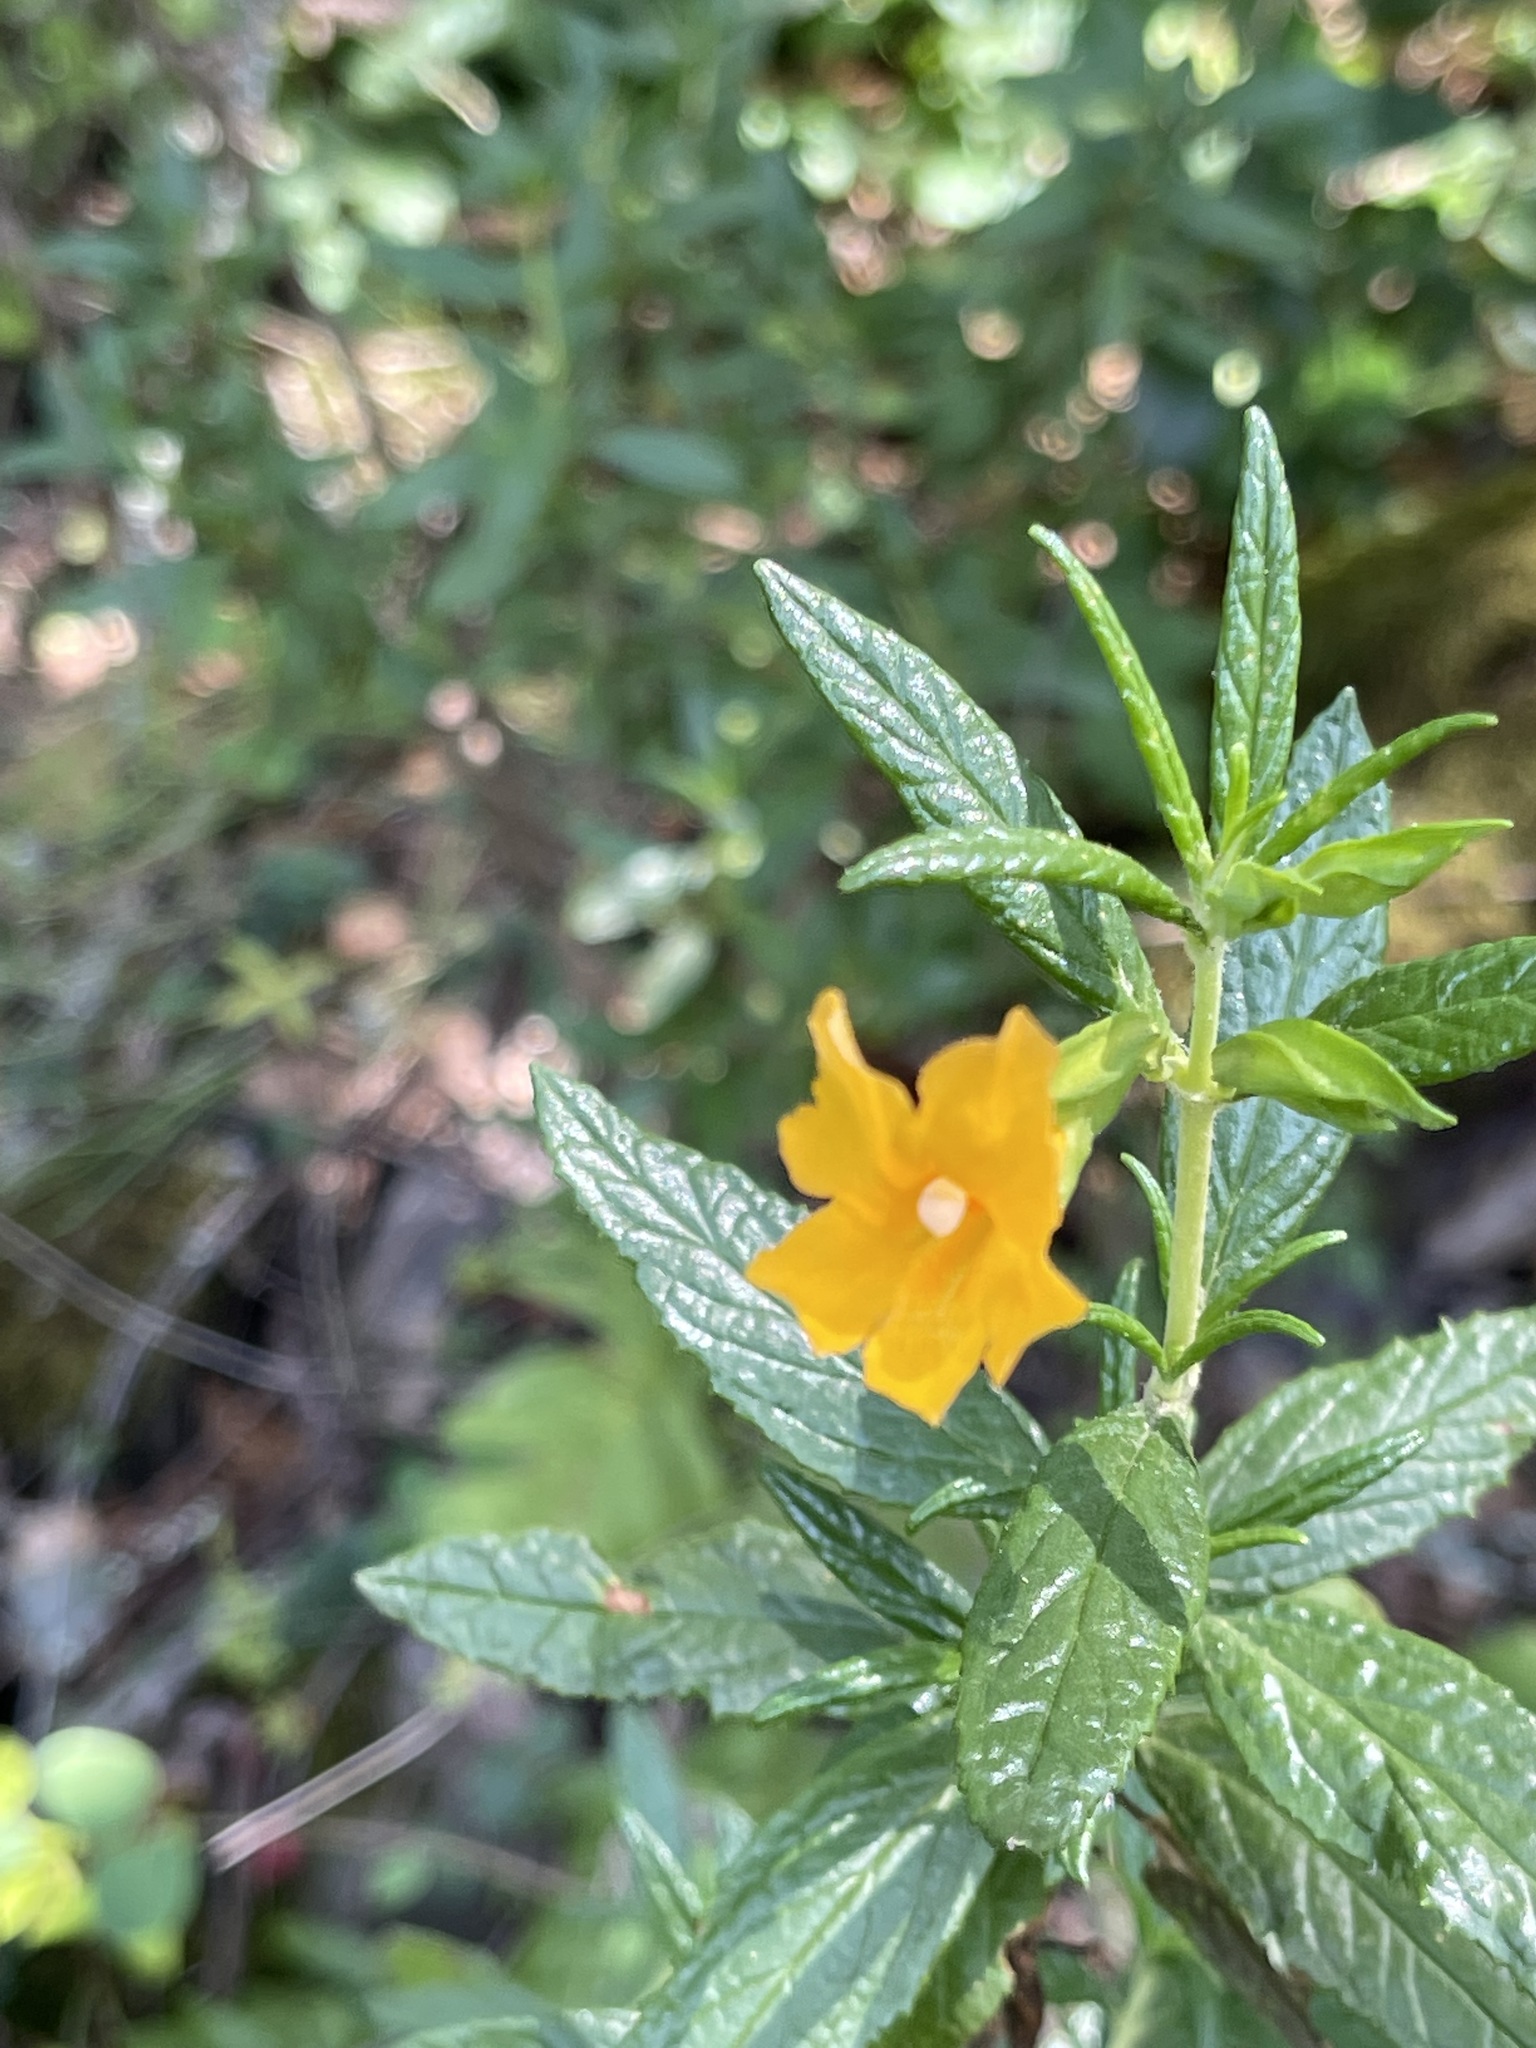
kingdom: Plantae
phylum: Tracheophyta
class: Magnoliopsida
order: Lamiales
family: Phrymaceae
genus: Diplacus
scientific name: Diplacus aurantiacus
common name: Bush monkey-flower
